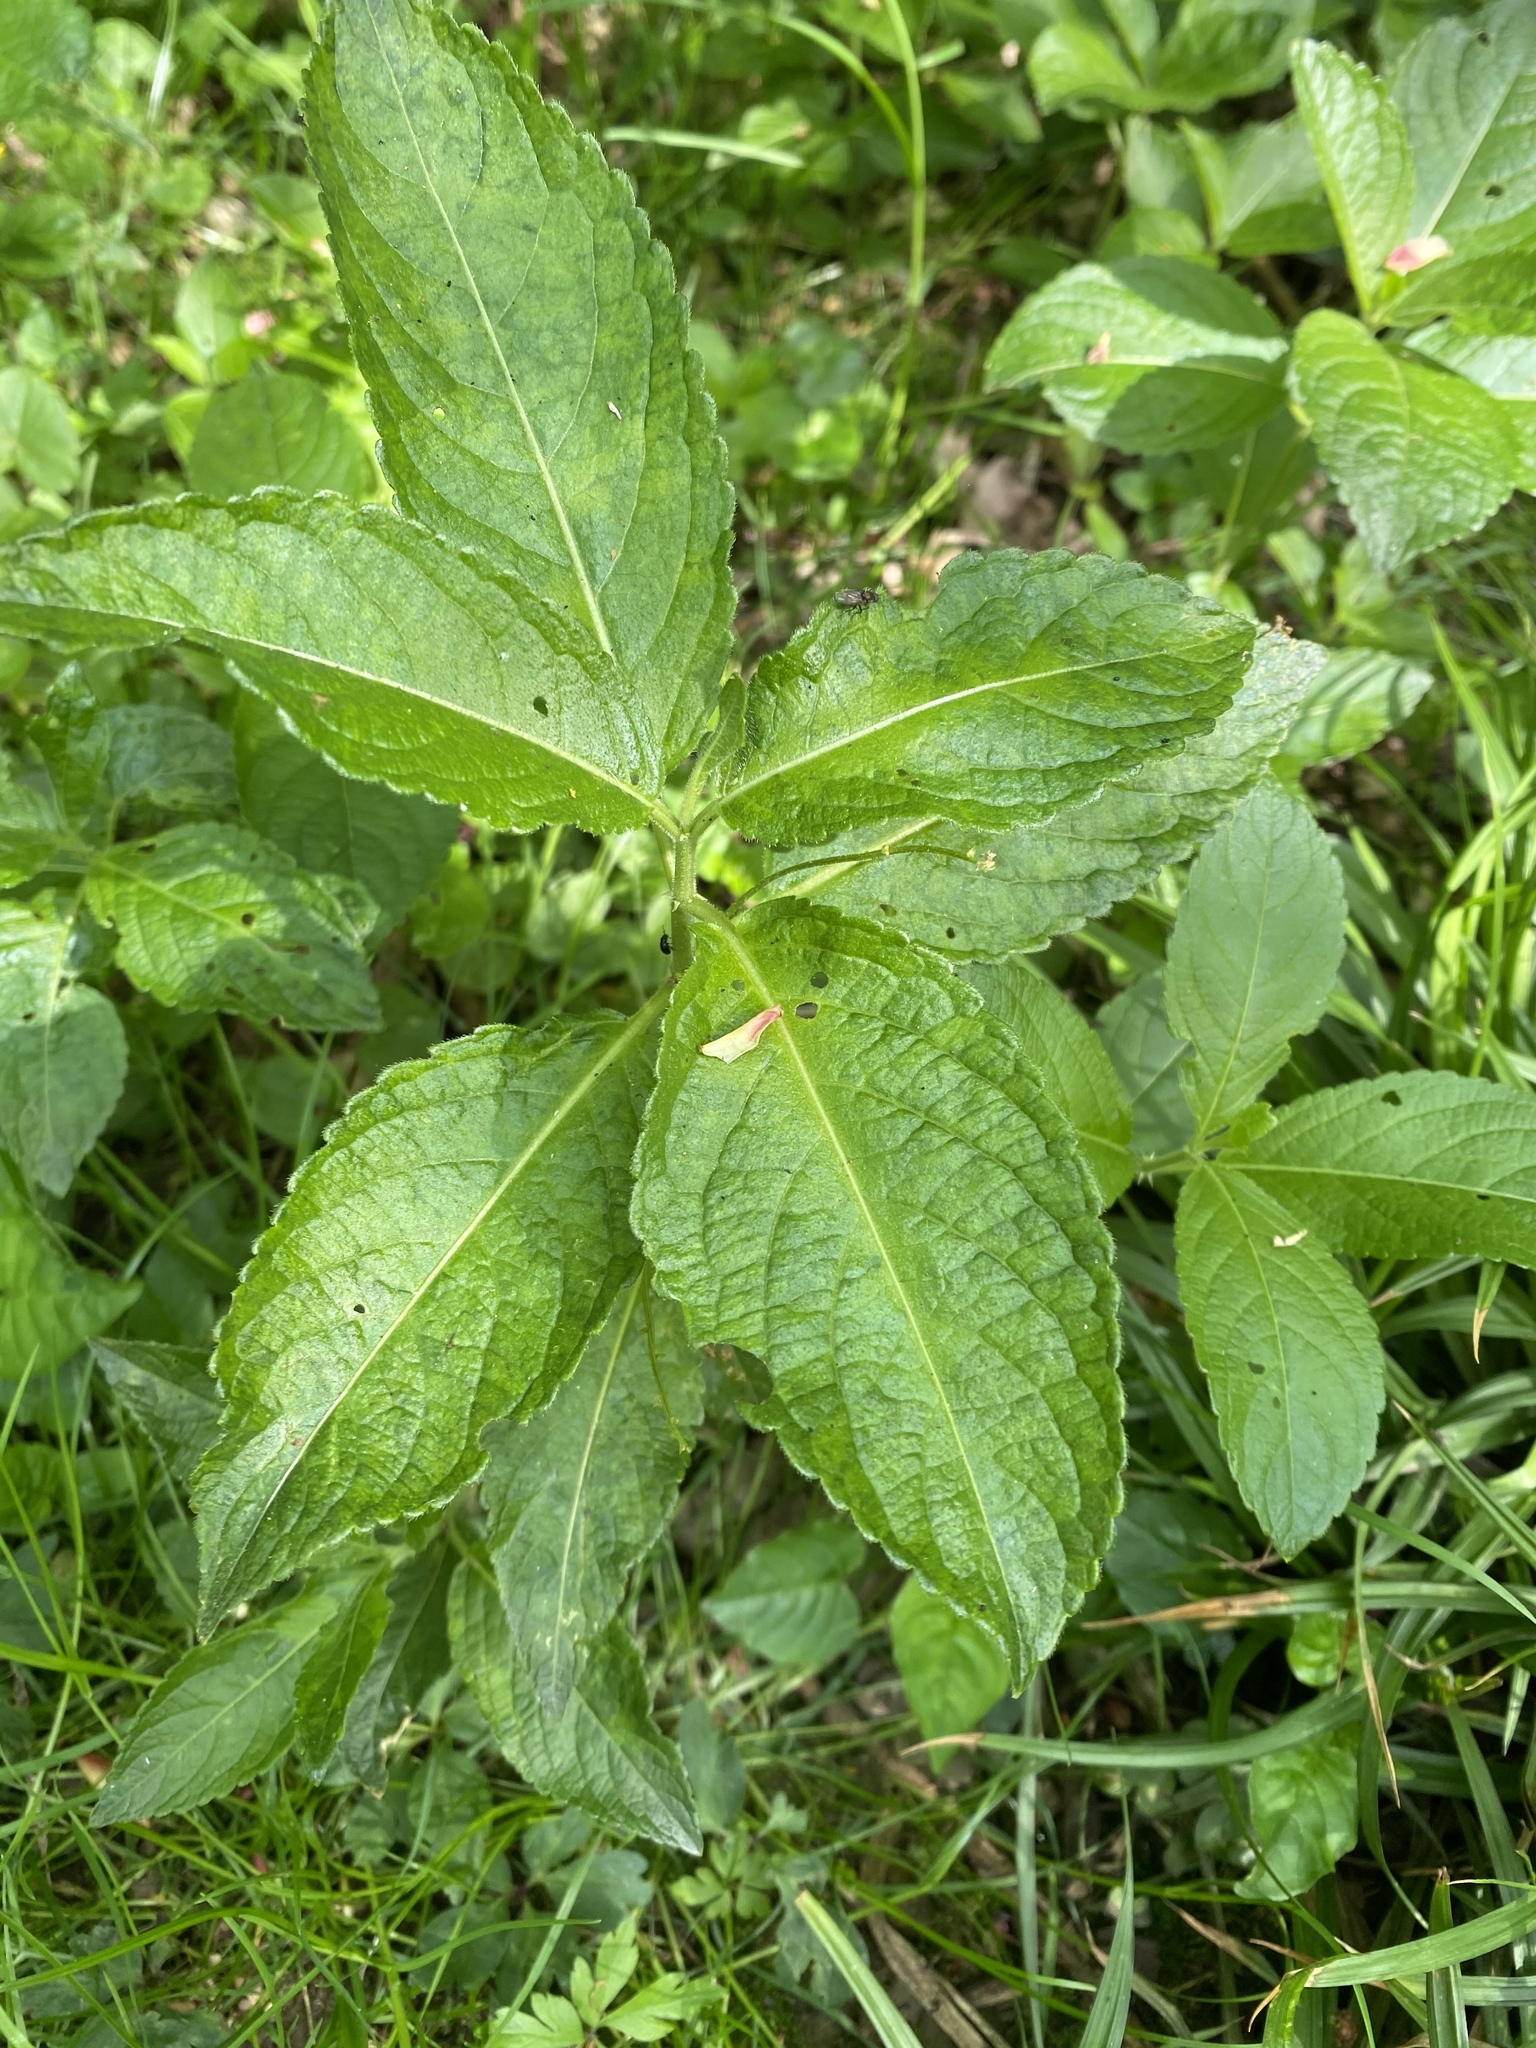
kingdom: Plantae
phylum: Tracheophyta
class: Magnoliopsida
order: Malpighiales
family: Euphorbiaceae
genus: Mercurialis
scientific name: Mercurialis perennis
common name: Dog mercury
